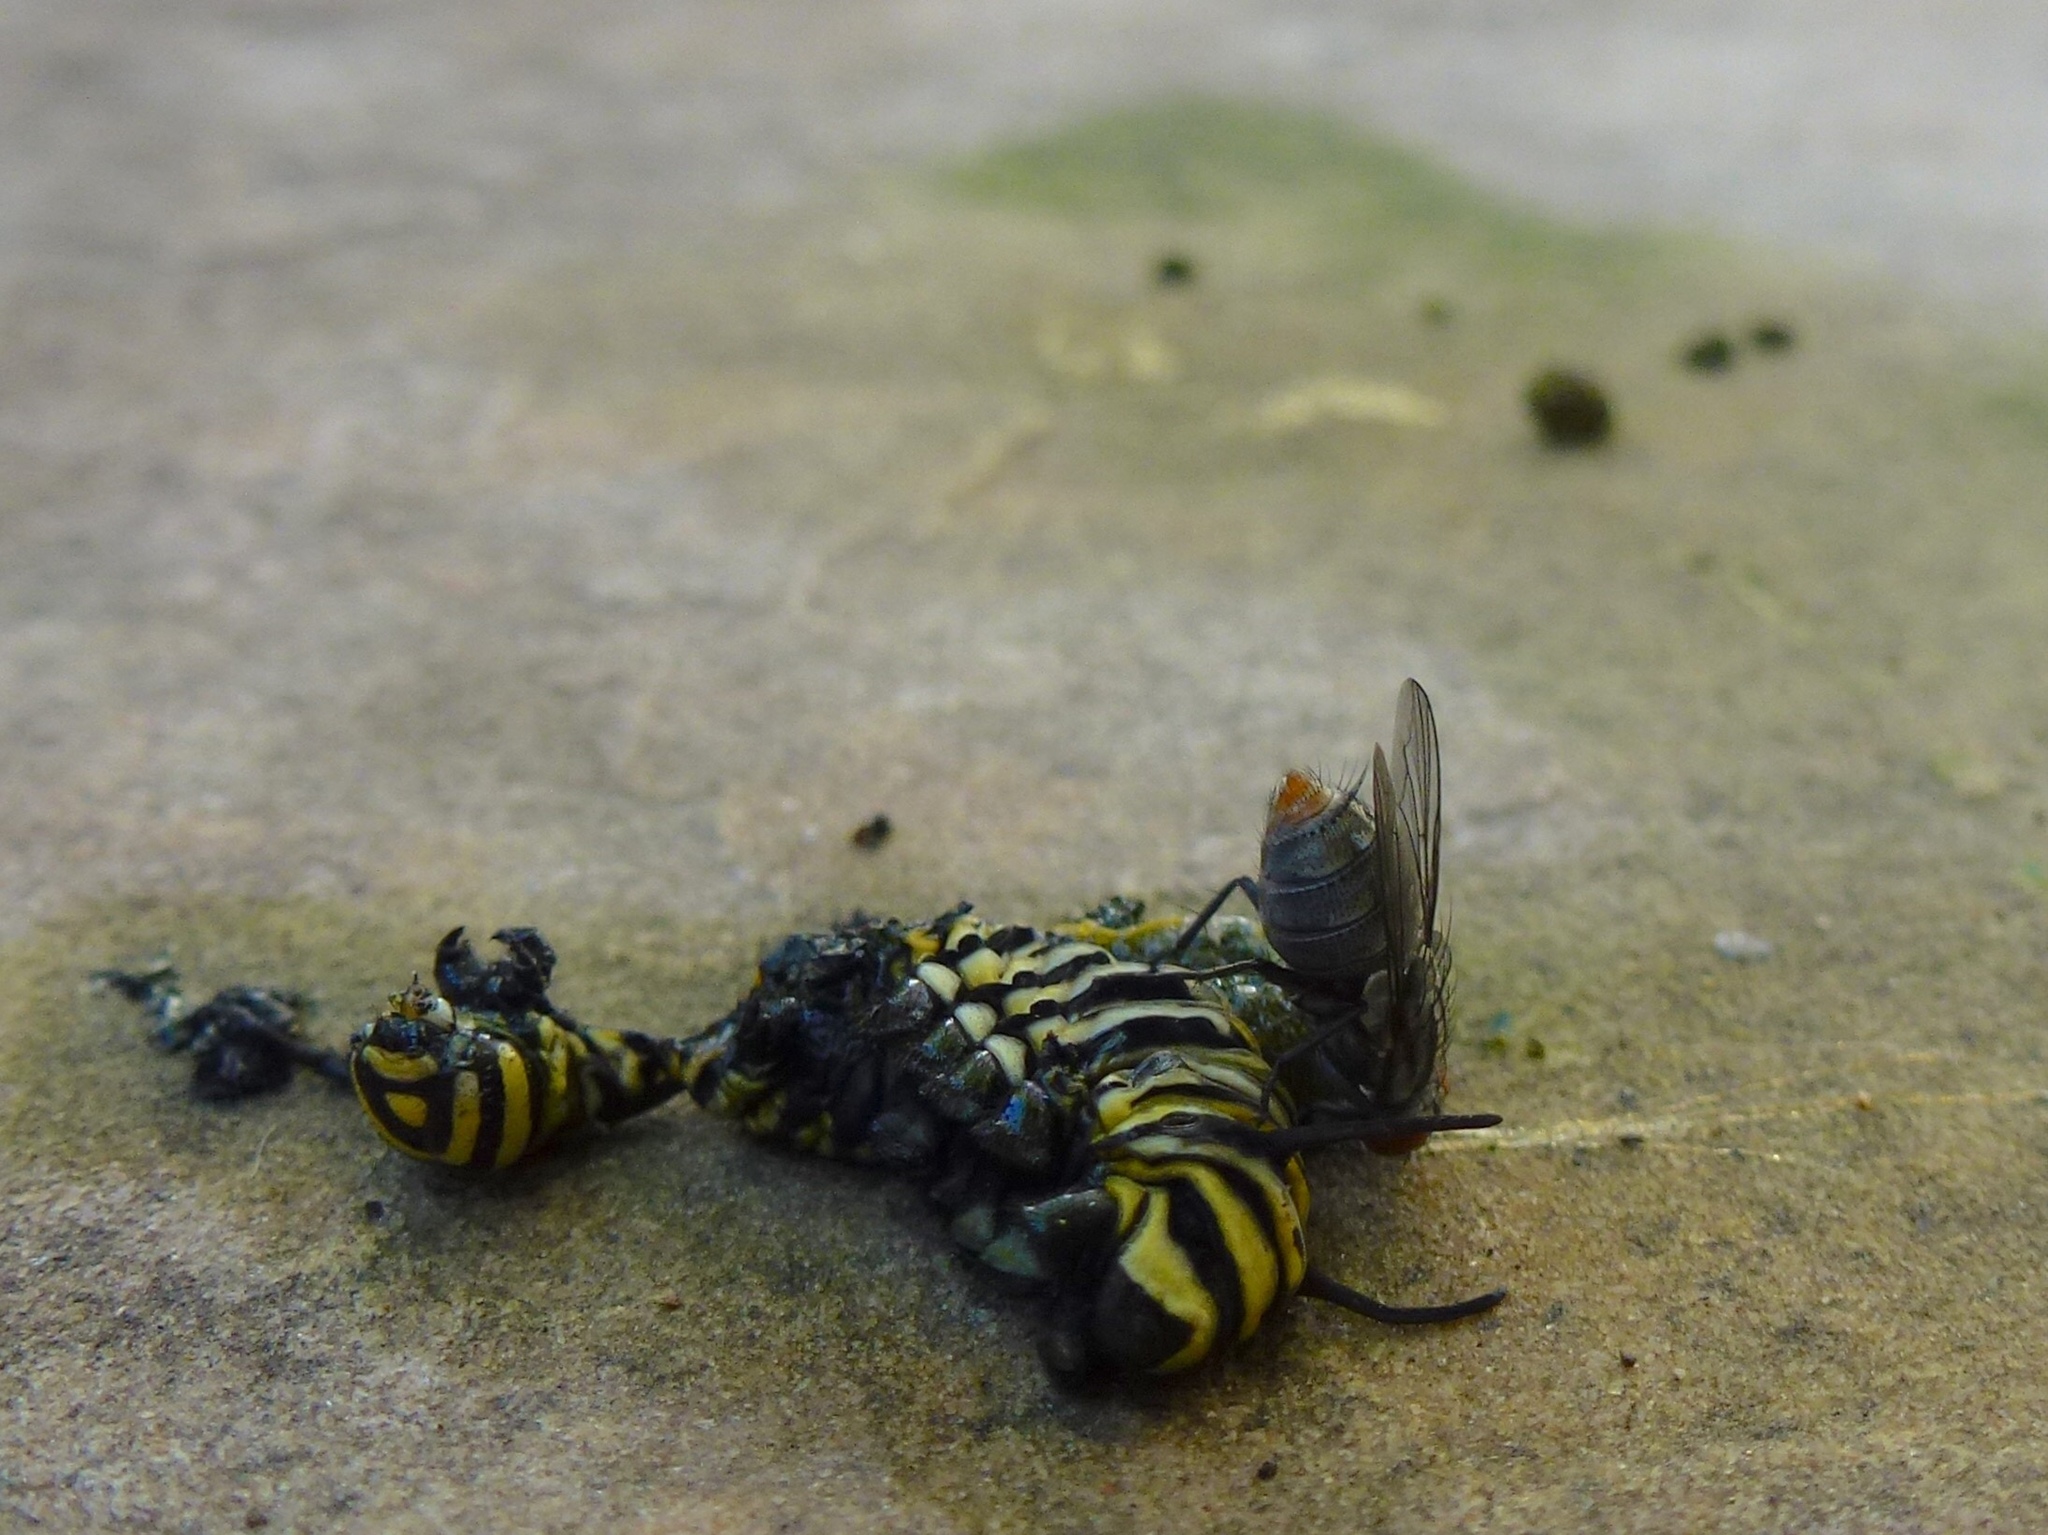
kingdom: Animalia
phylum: Arthropoda
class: Insecta
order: Lepidoptera
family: Nymphalidae
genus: Danaus
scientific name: Danaus plexippus
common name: Monarch
